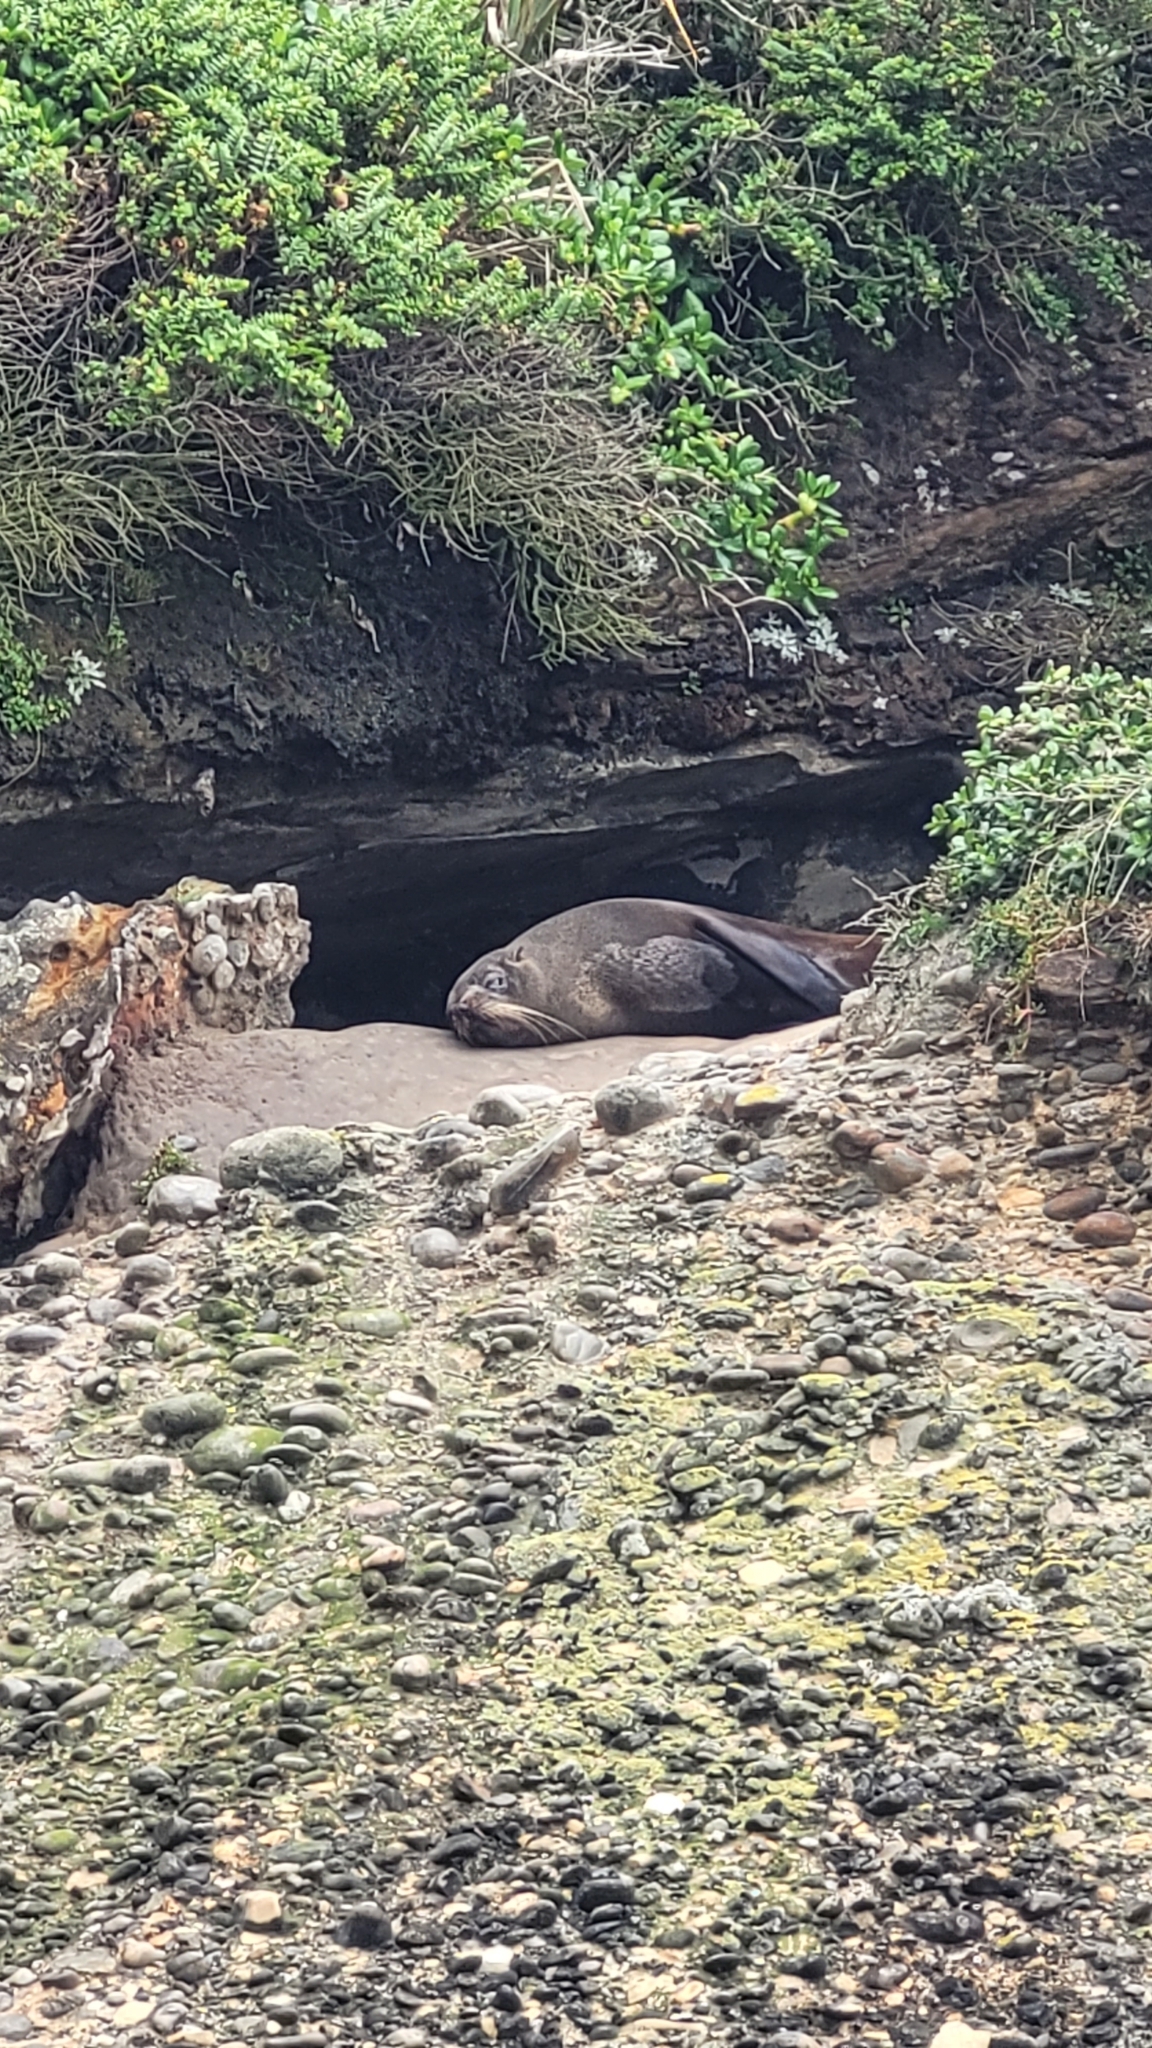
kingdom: Animalia
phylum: Chordata
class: Mammalia
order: Carnivora
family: Otariidae
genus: Arctocephalus
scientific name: Arctocephalus forsteri
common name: New zealand fur seal
